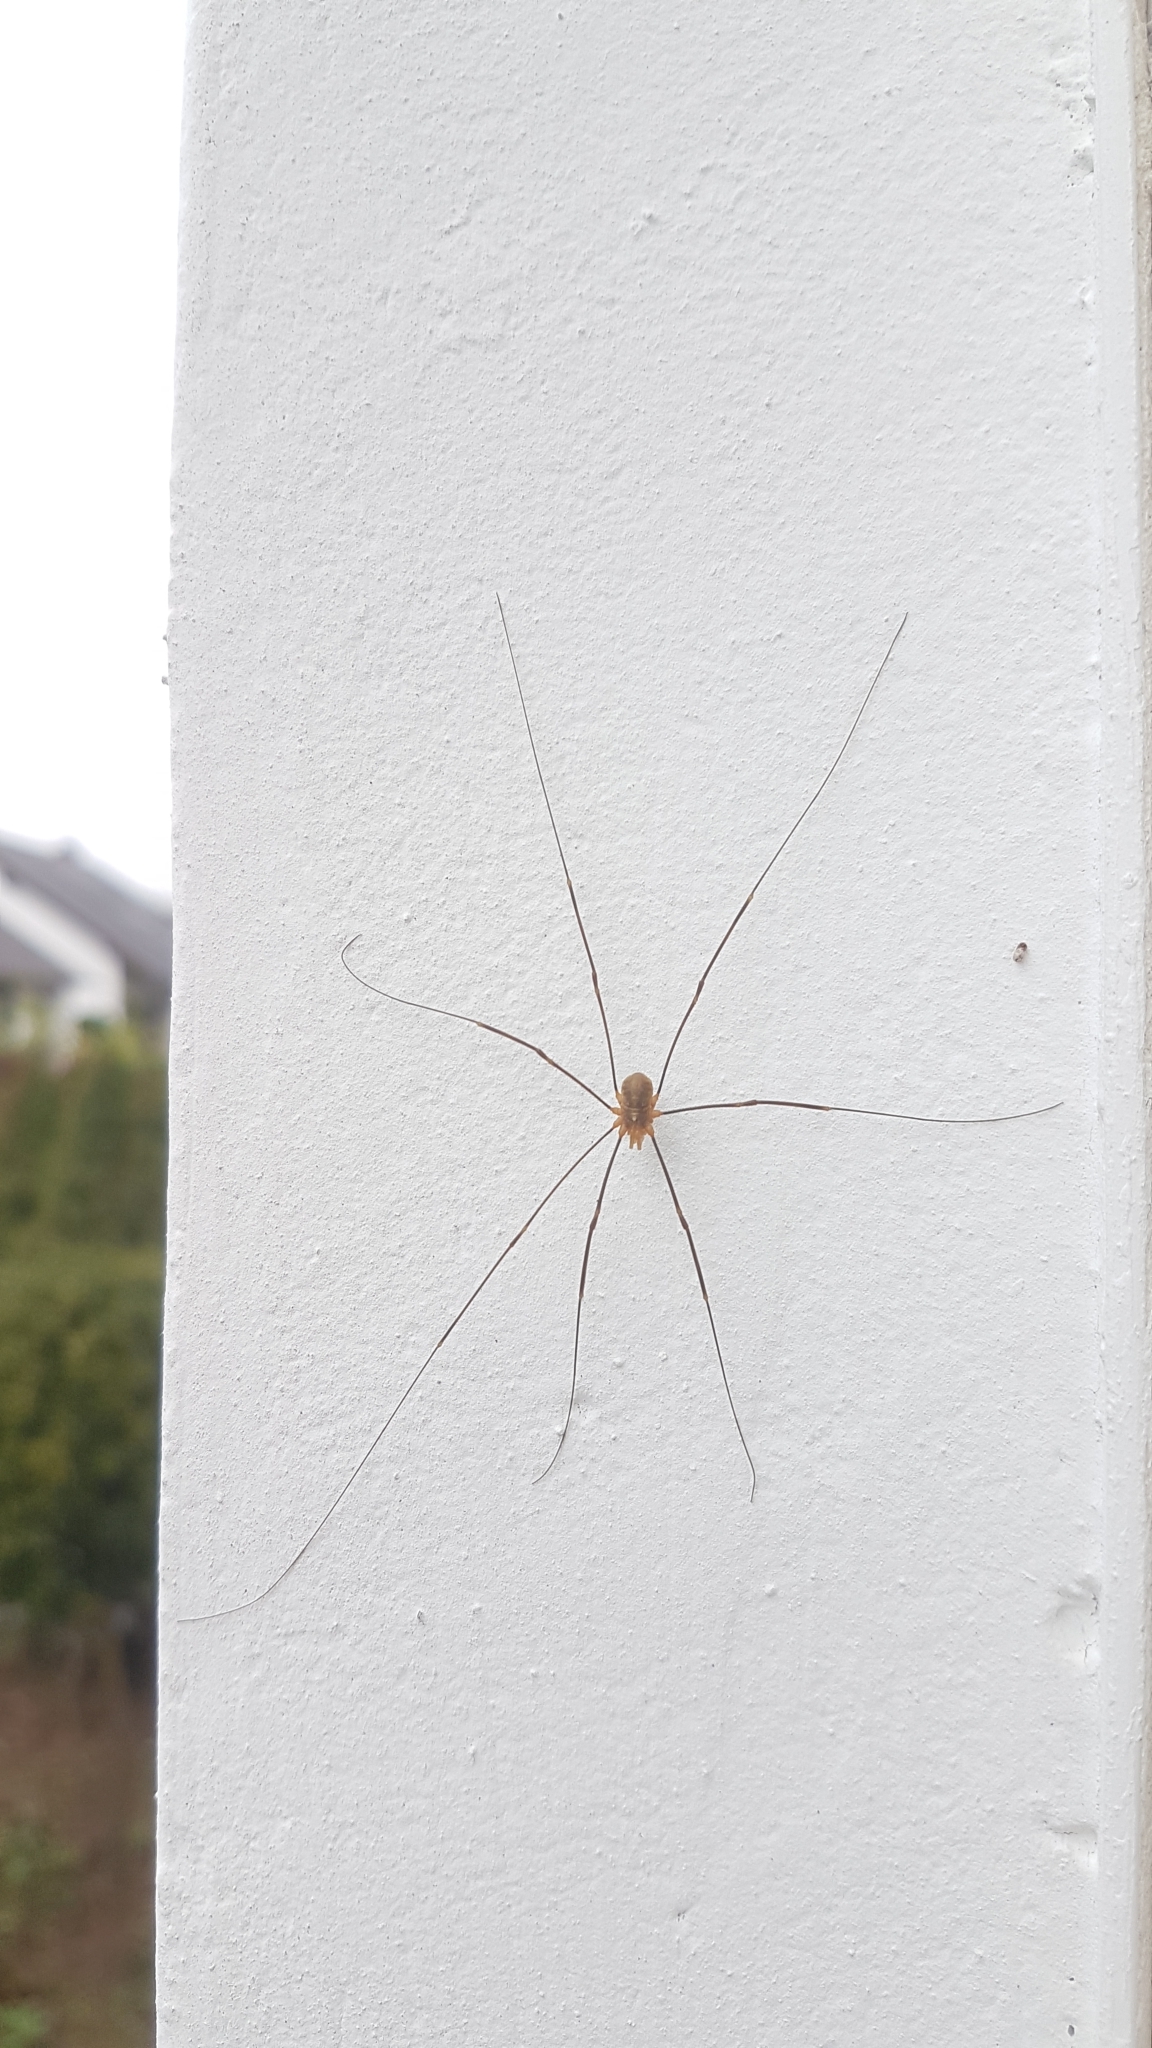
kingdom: Animalia
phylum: Arthropoda
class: Arachnida
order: Opiliones
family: Phalangiidae
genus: Opilio
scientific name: Opilio canestrinii
